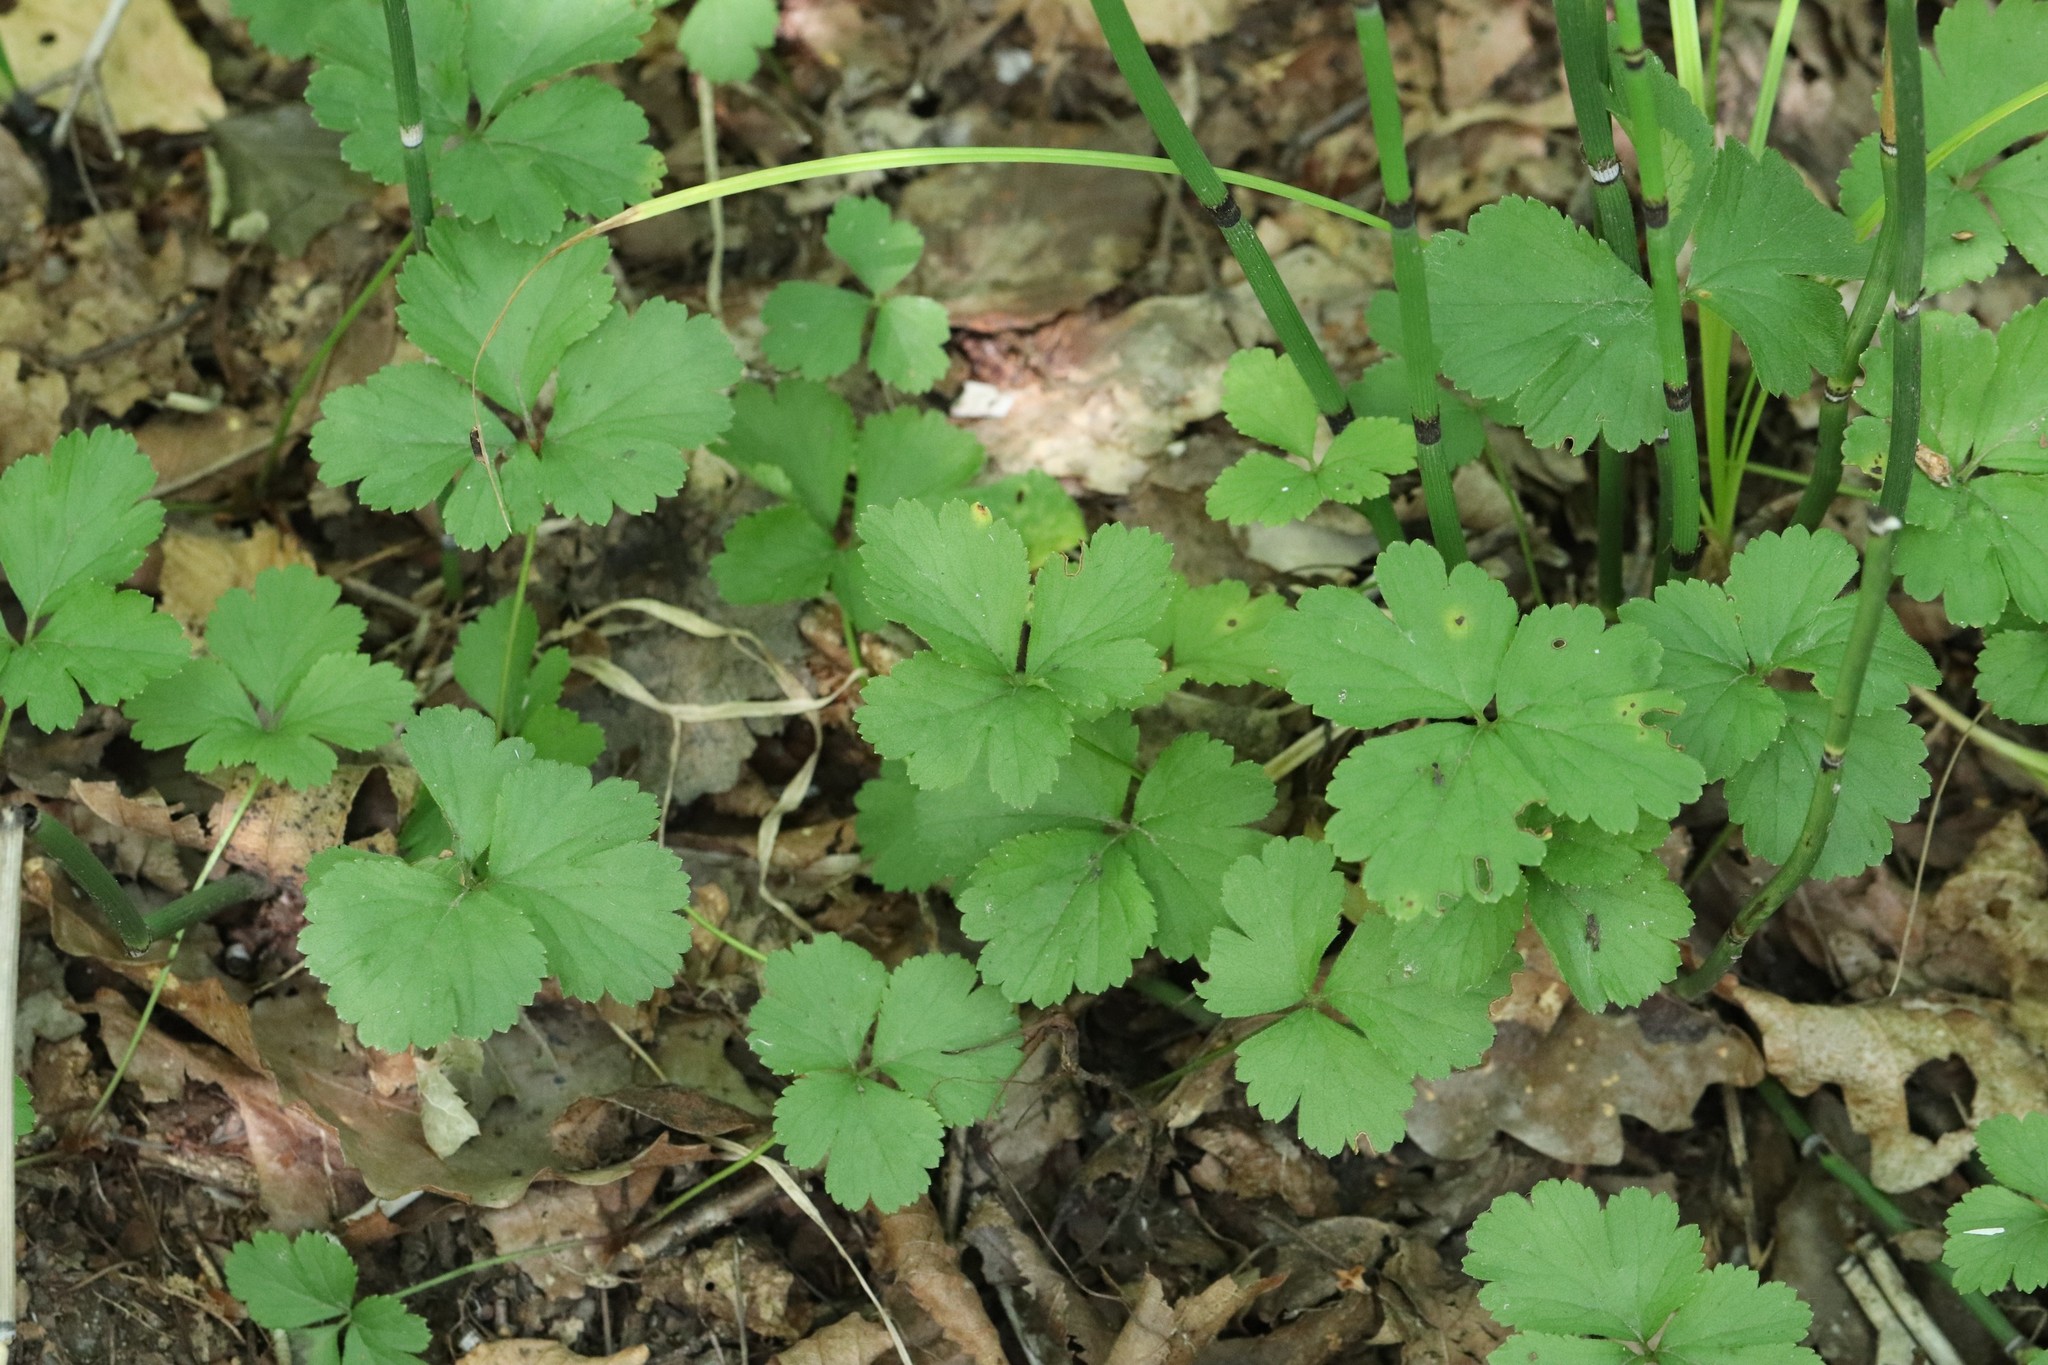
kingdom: Plantae
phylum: Tracheophyta
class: Magnoliopsida
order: Rosales
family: Rosaceae
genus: Geum
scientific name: Geum ternatum
